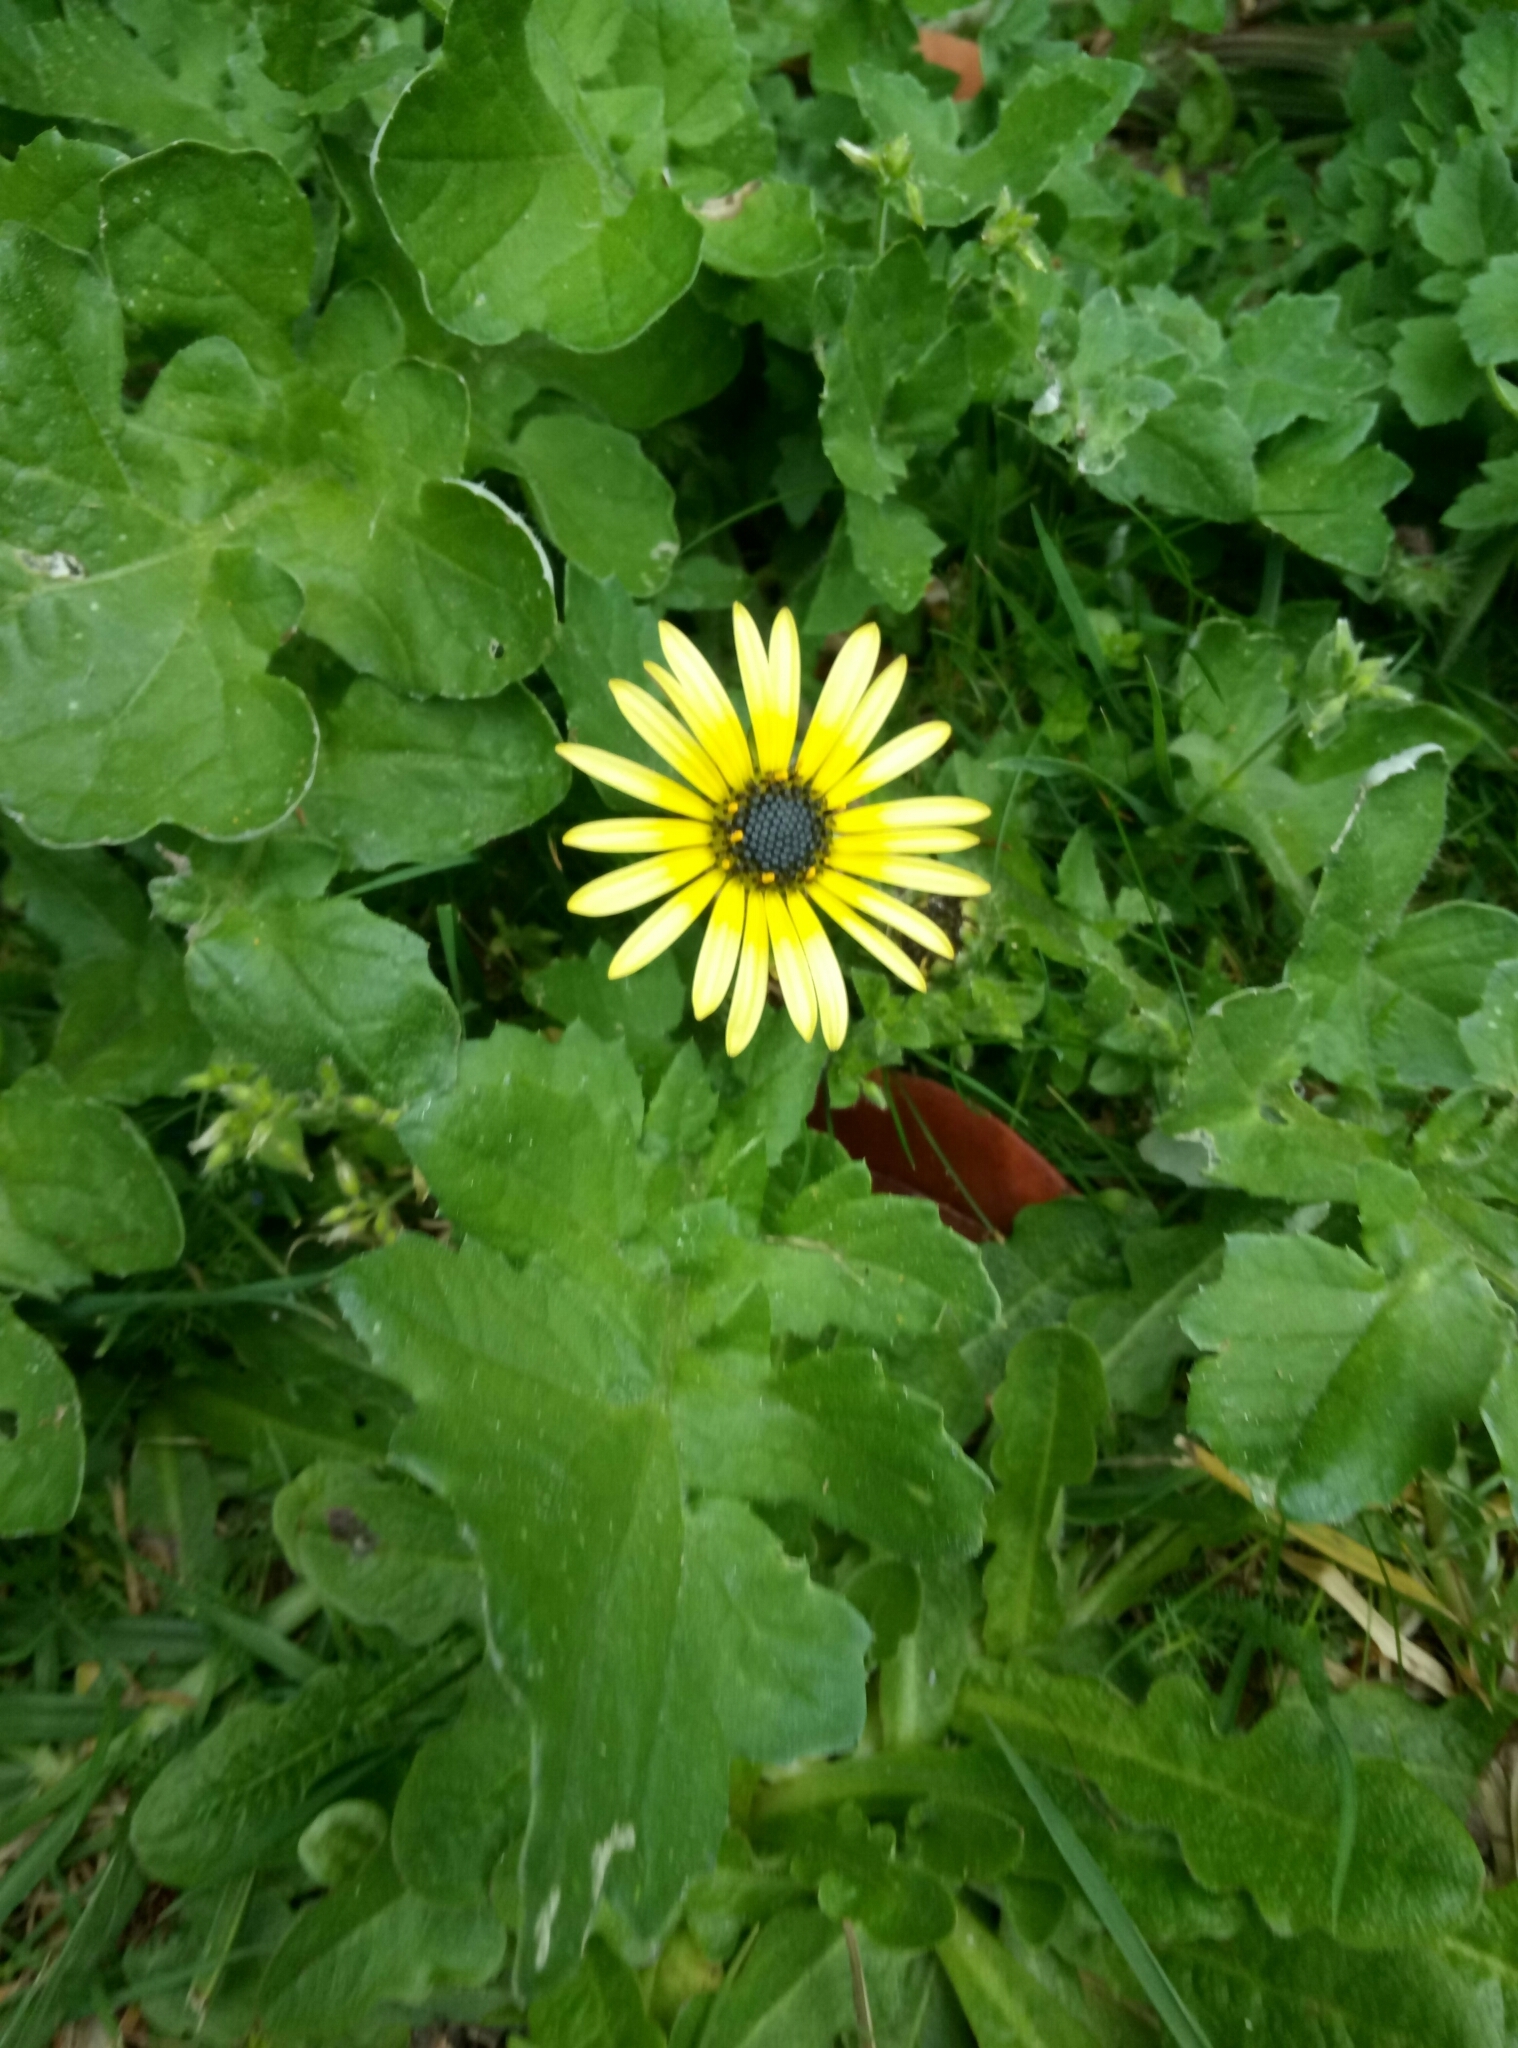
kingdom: Plantae
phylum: Tracheophyta
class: Magnoliopsida
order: Asterales
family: Asteraceae
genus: Arctotheca
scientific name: Arctotheca calendula
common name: Capeweed
